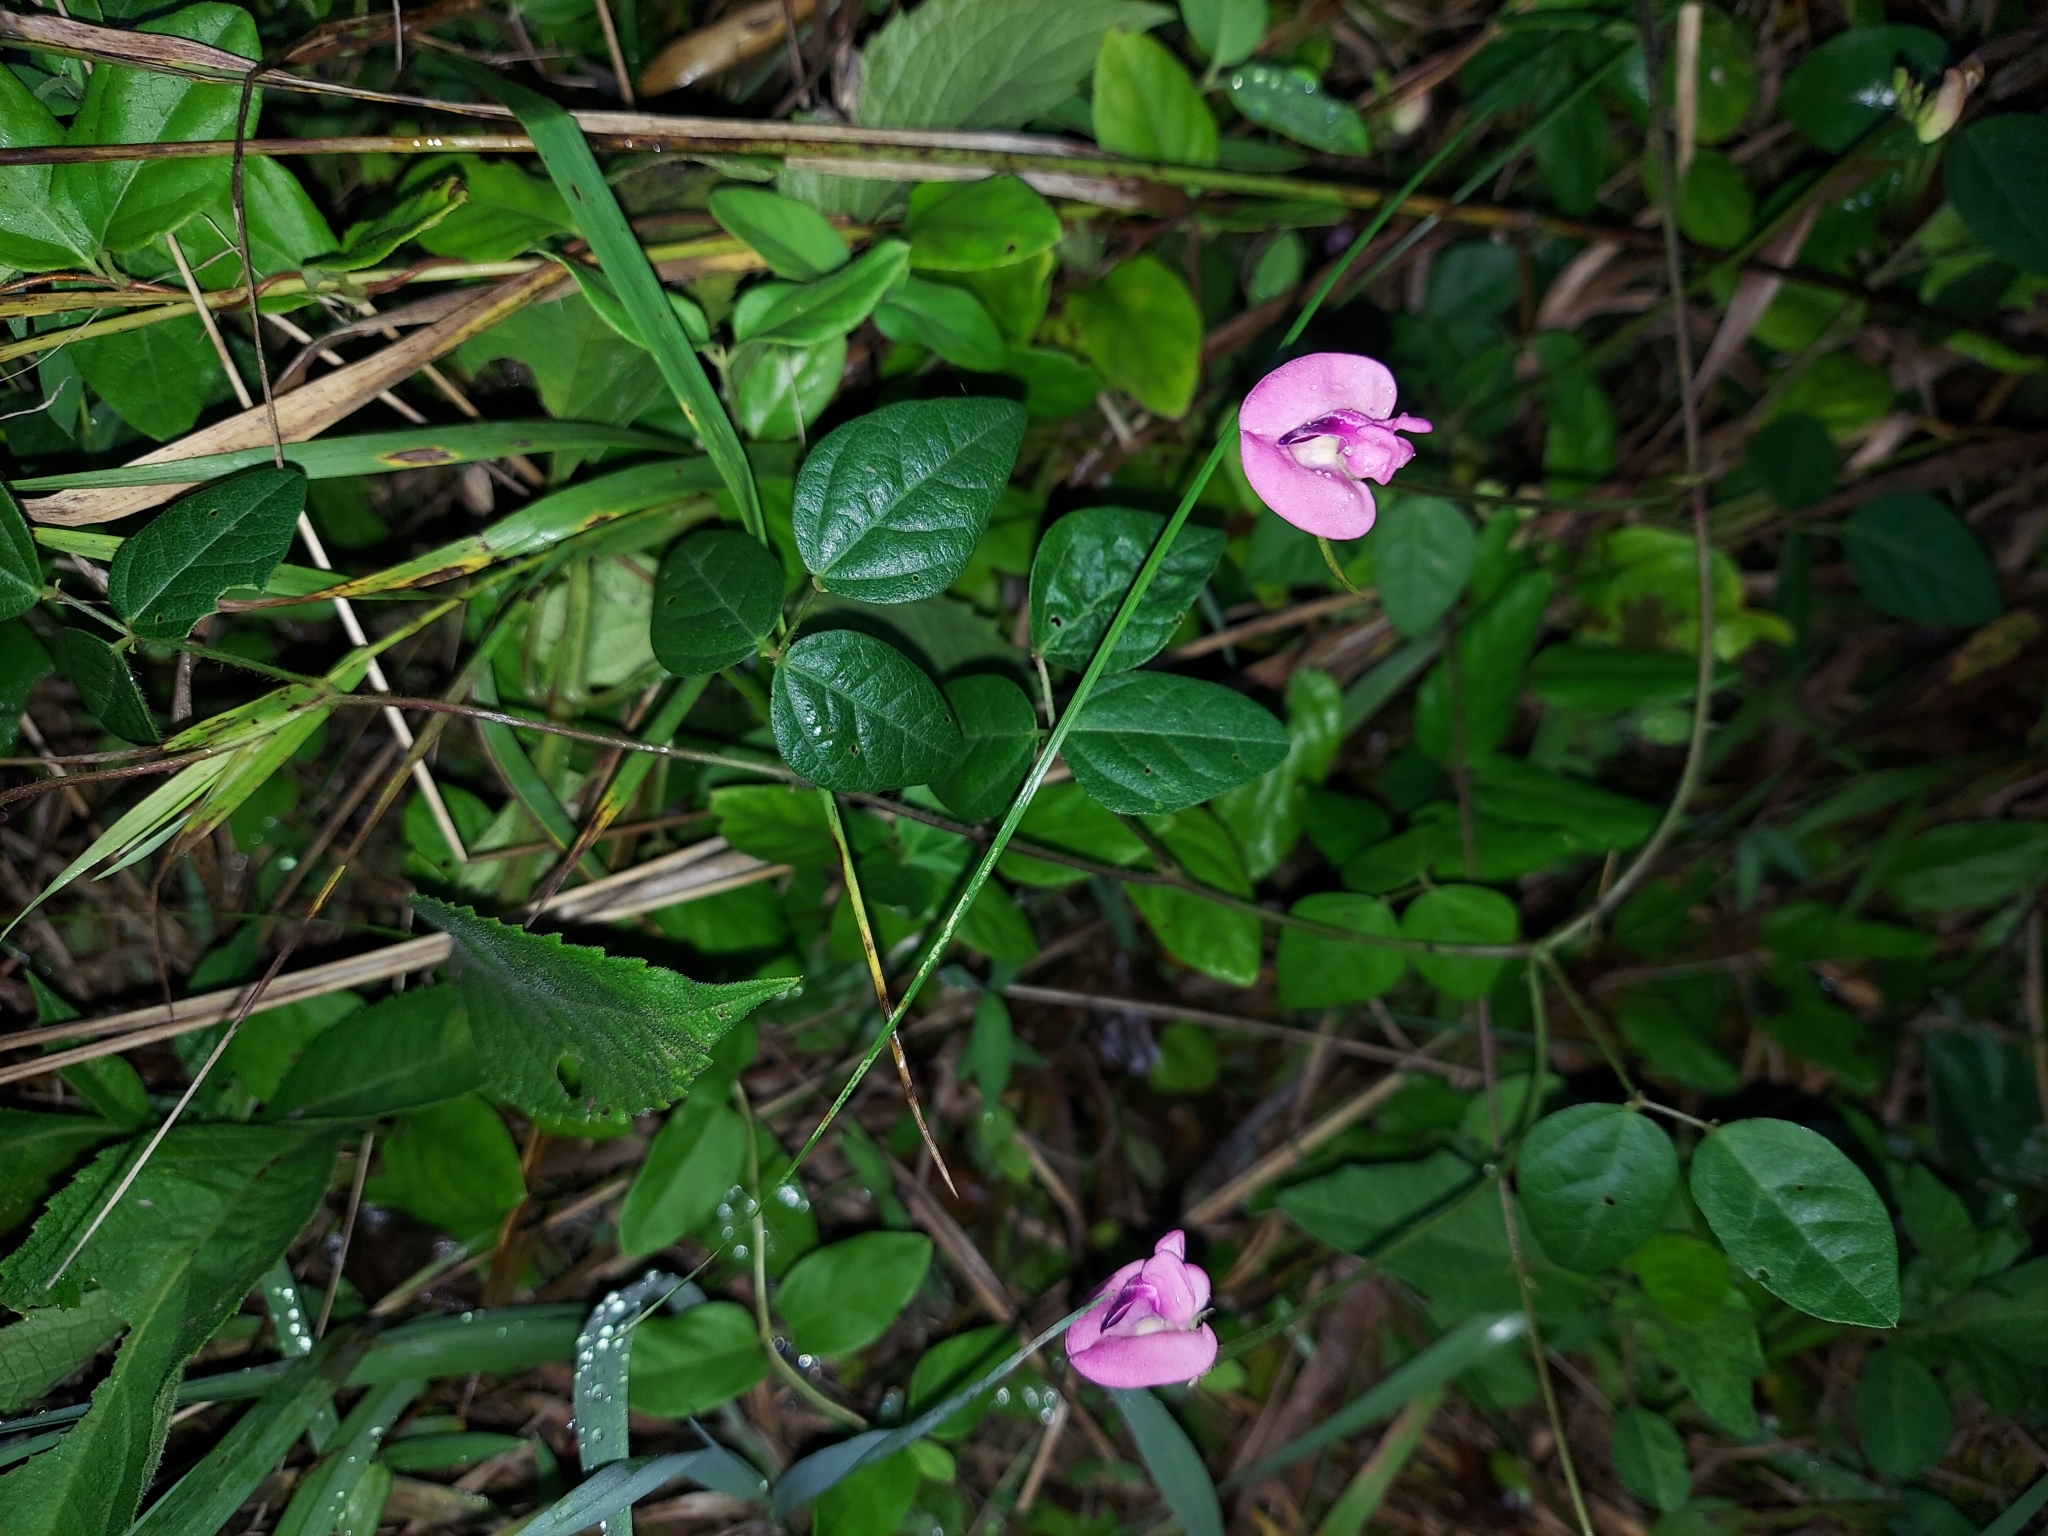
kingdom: Plantae
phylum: Tracheophyta
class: Magnoliopsida
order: Fabales
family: Fabaceae
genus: Strophostyles
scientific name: Strophostyles umbellata
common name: Perennial wild bean
